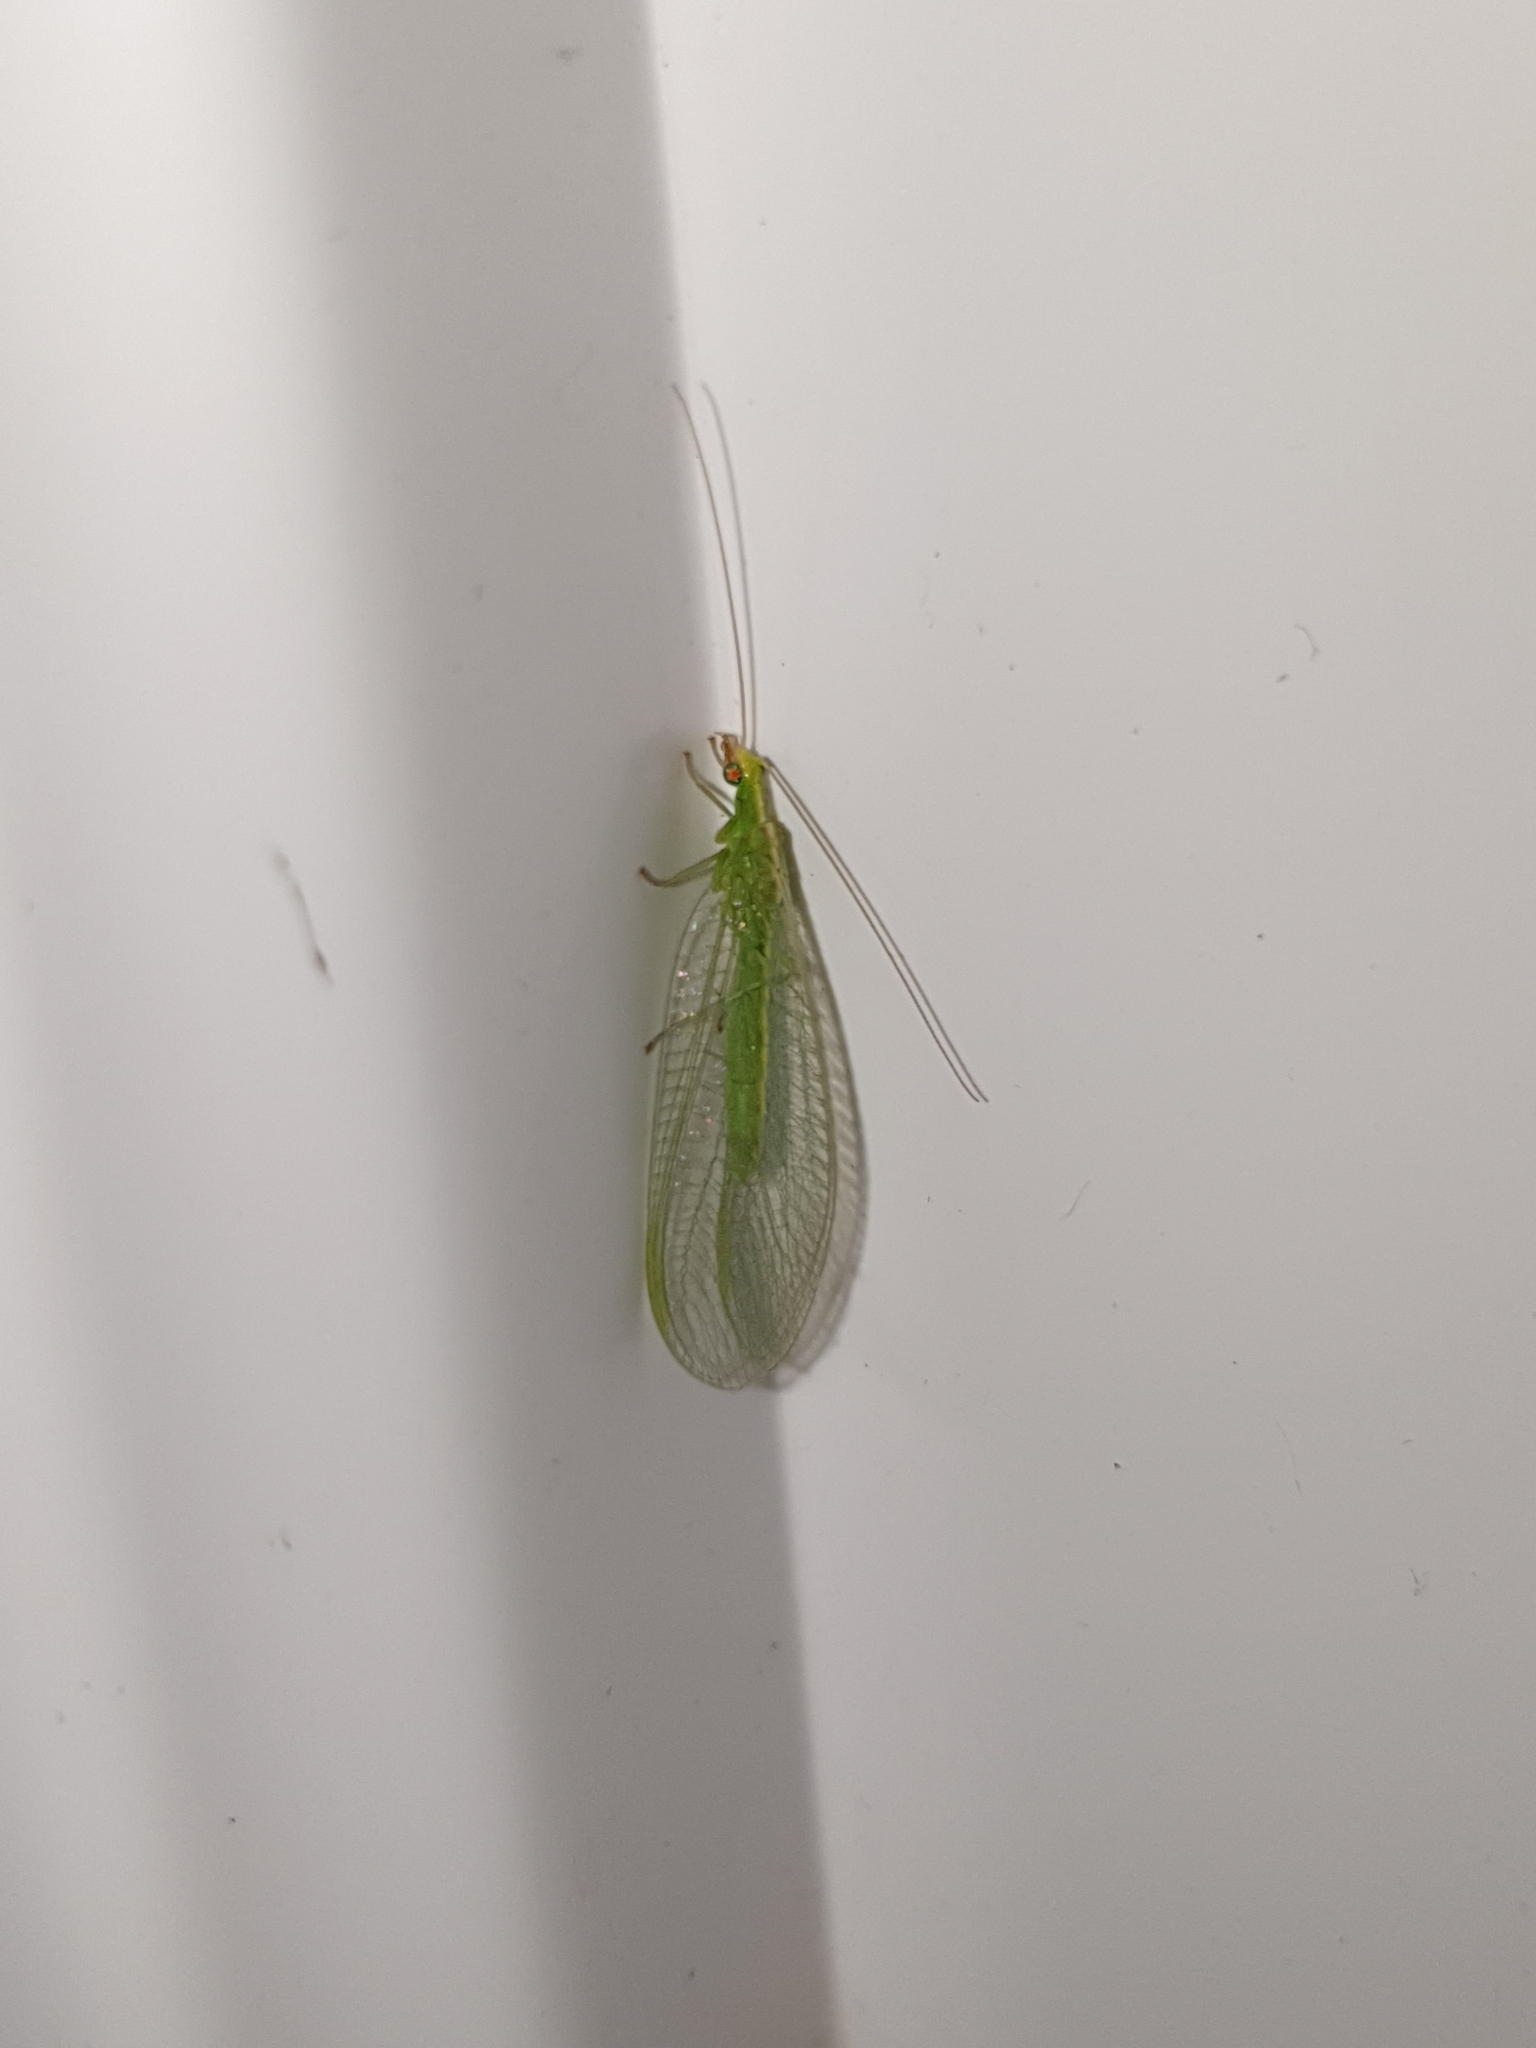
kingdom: Animalia
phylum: Arthropoda
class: Insecta
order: Neuroptera
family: Chrysopidae
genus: Chrysoperla
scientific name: Chrysoperla
